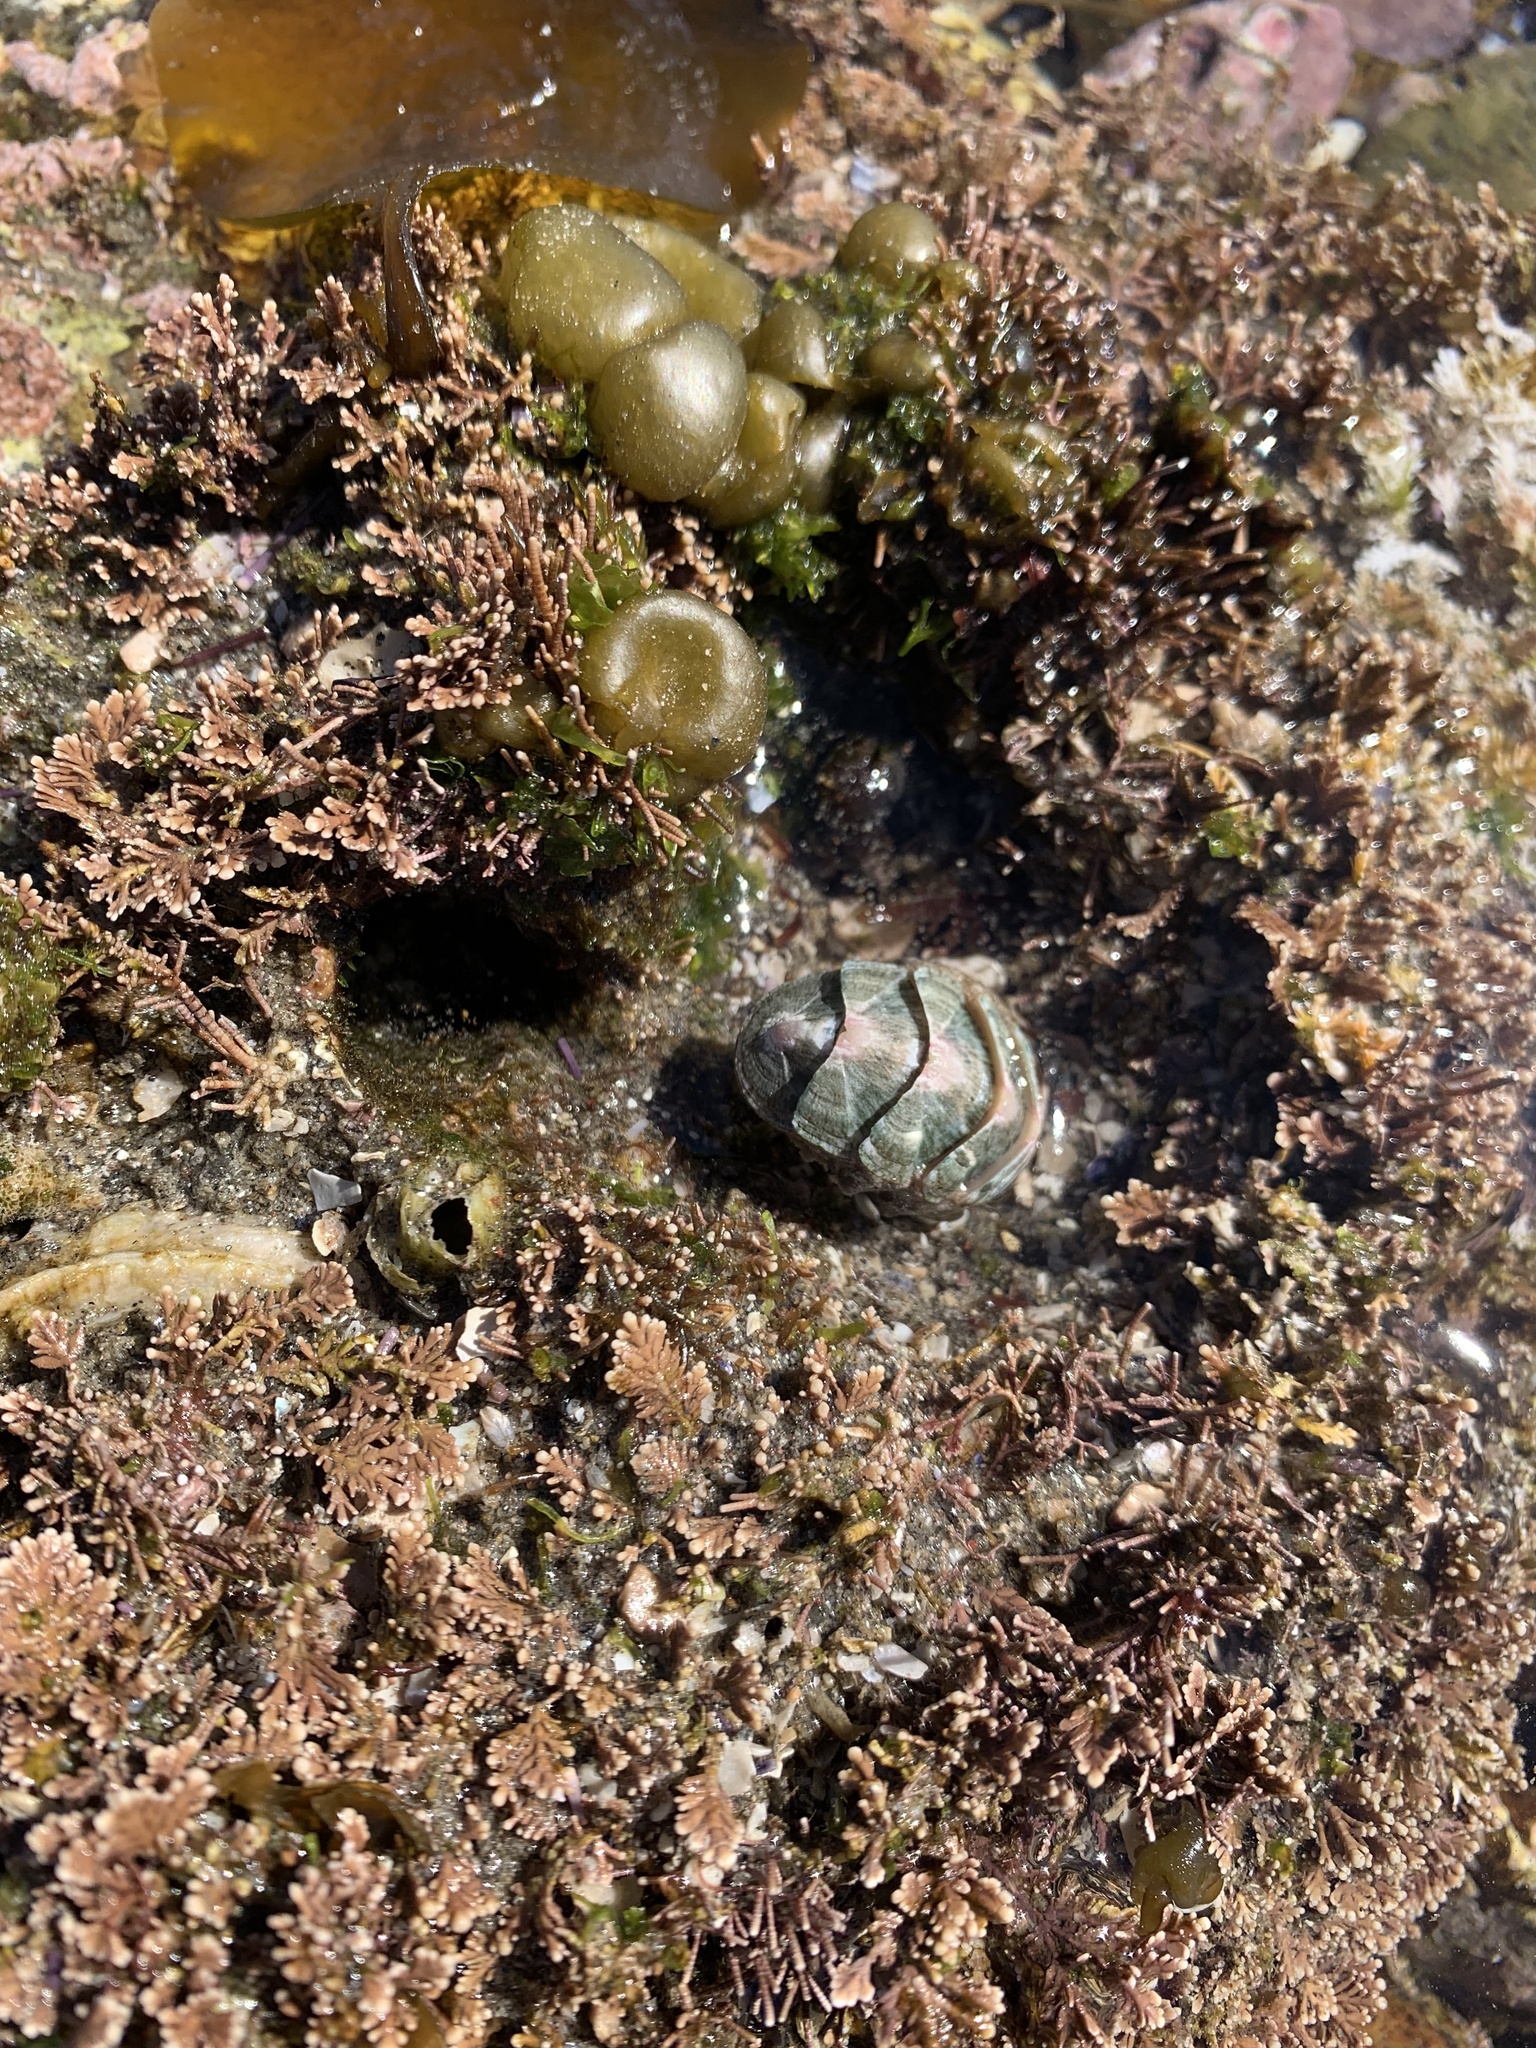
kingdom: Animalia
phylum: Mollusca
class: Polyplacophora
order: Chitonida
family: Ischnochitonidae
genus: Stenoplax
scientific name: Stenoplax conspicua
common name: Conspicuous chiton
